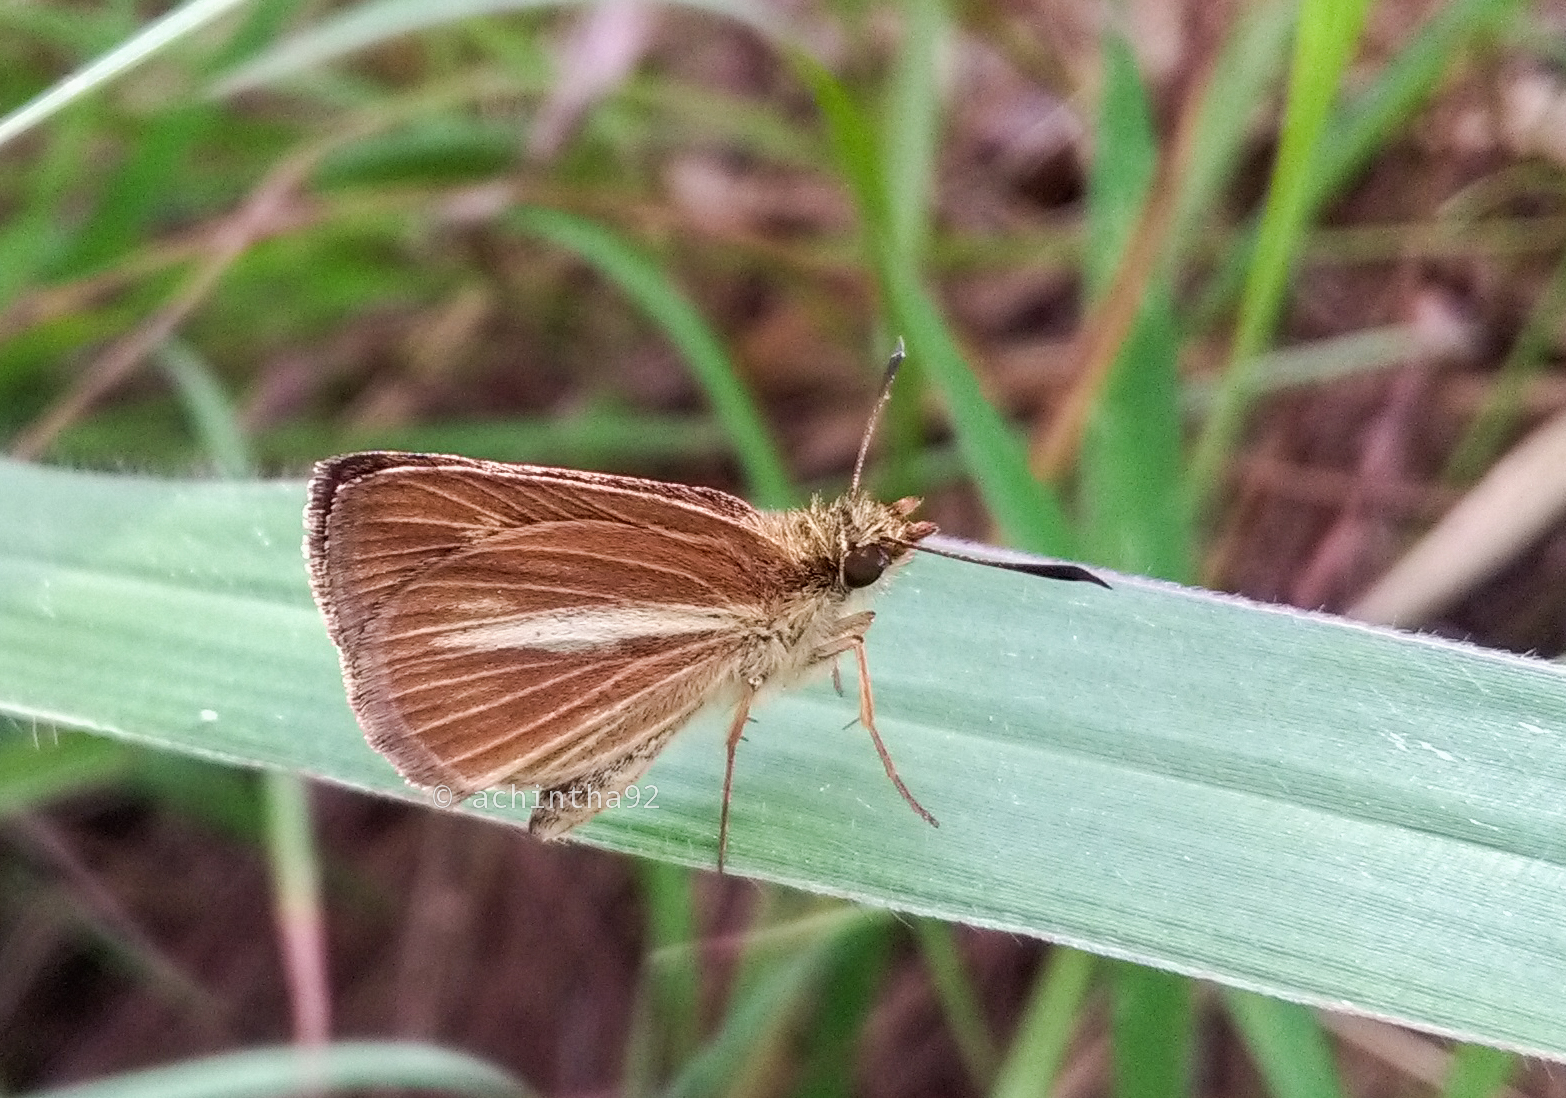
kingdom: Animalia
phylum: Arthropoda
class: Insecta
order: Lepidoptera
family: Hesperiidae
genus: Baracus
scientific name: Baracus vittatus
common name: Hedge-hopper
